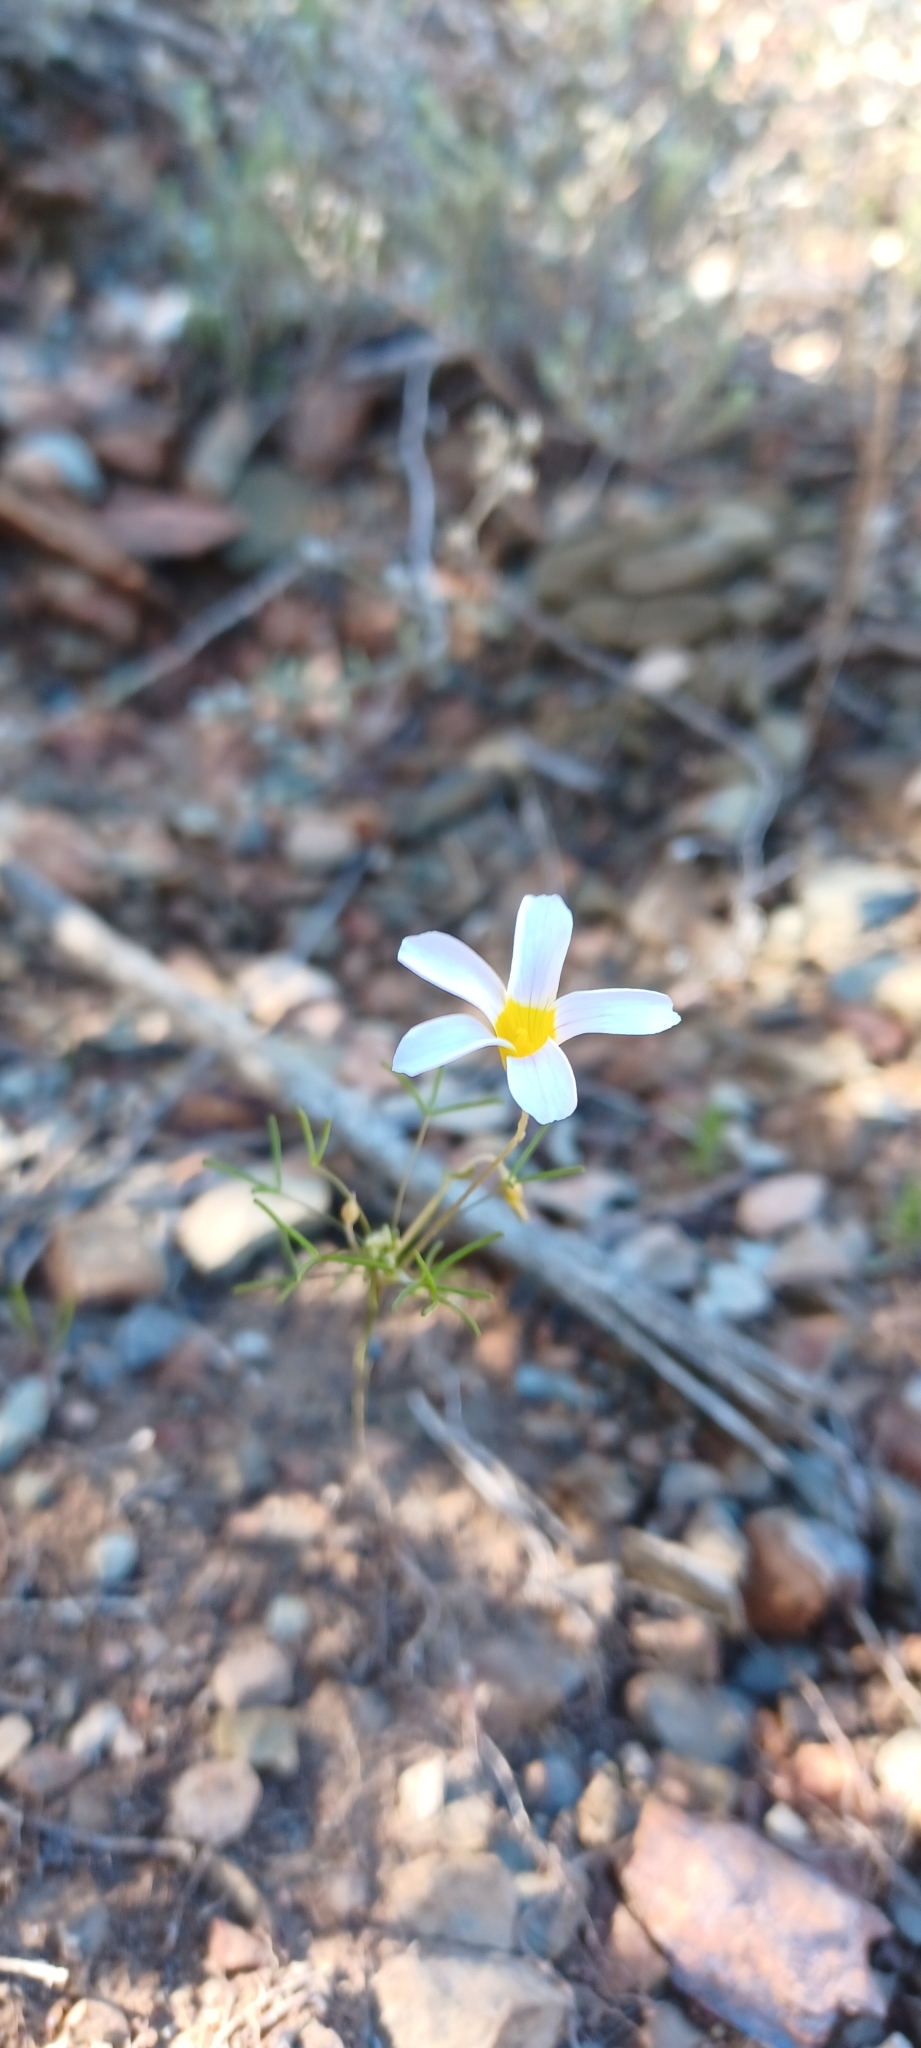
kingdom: Plantae
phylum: Tracheophyta
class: Magnoliopsida
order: Oxalidales
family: Oxalidaceae
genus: Oxalis
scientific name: Oxalis burkei
